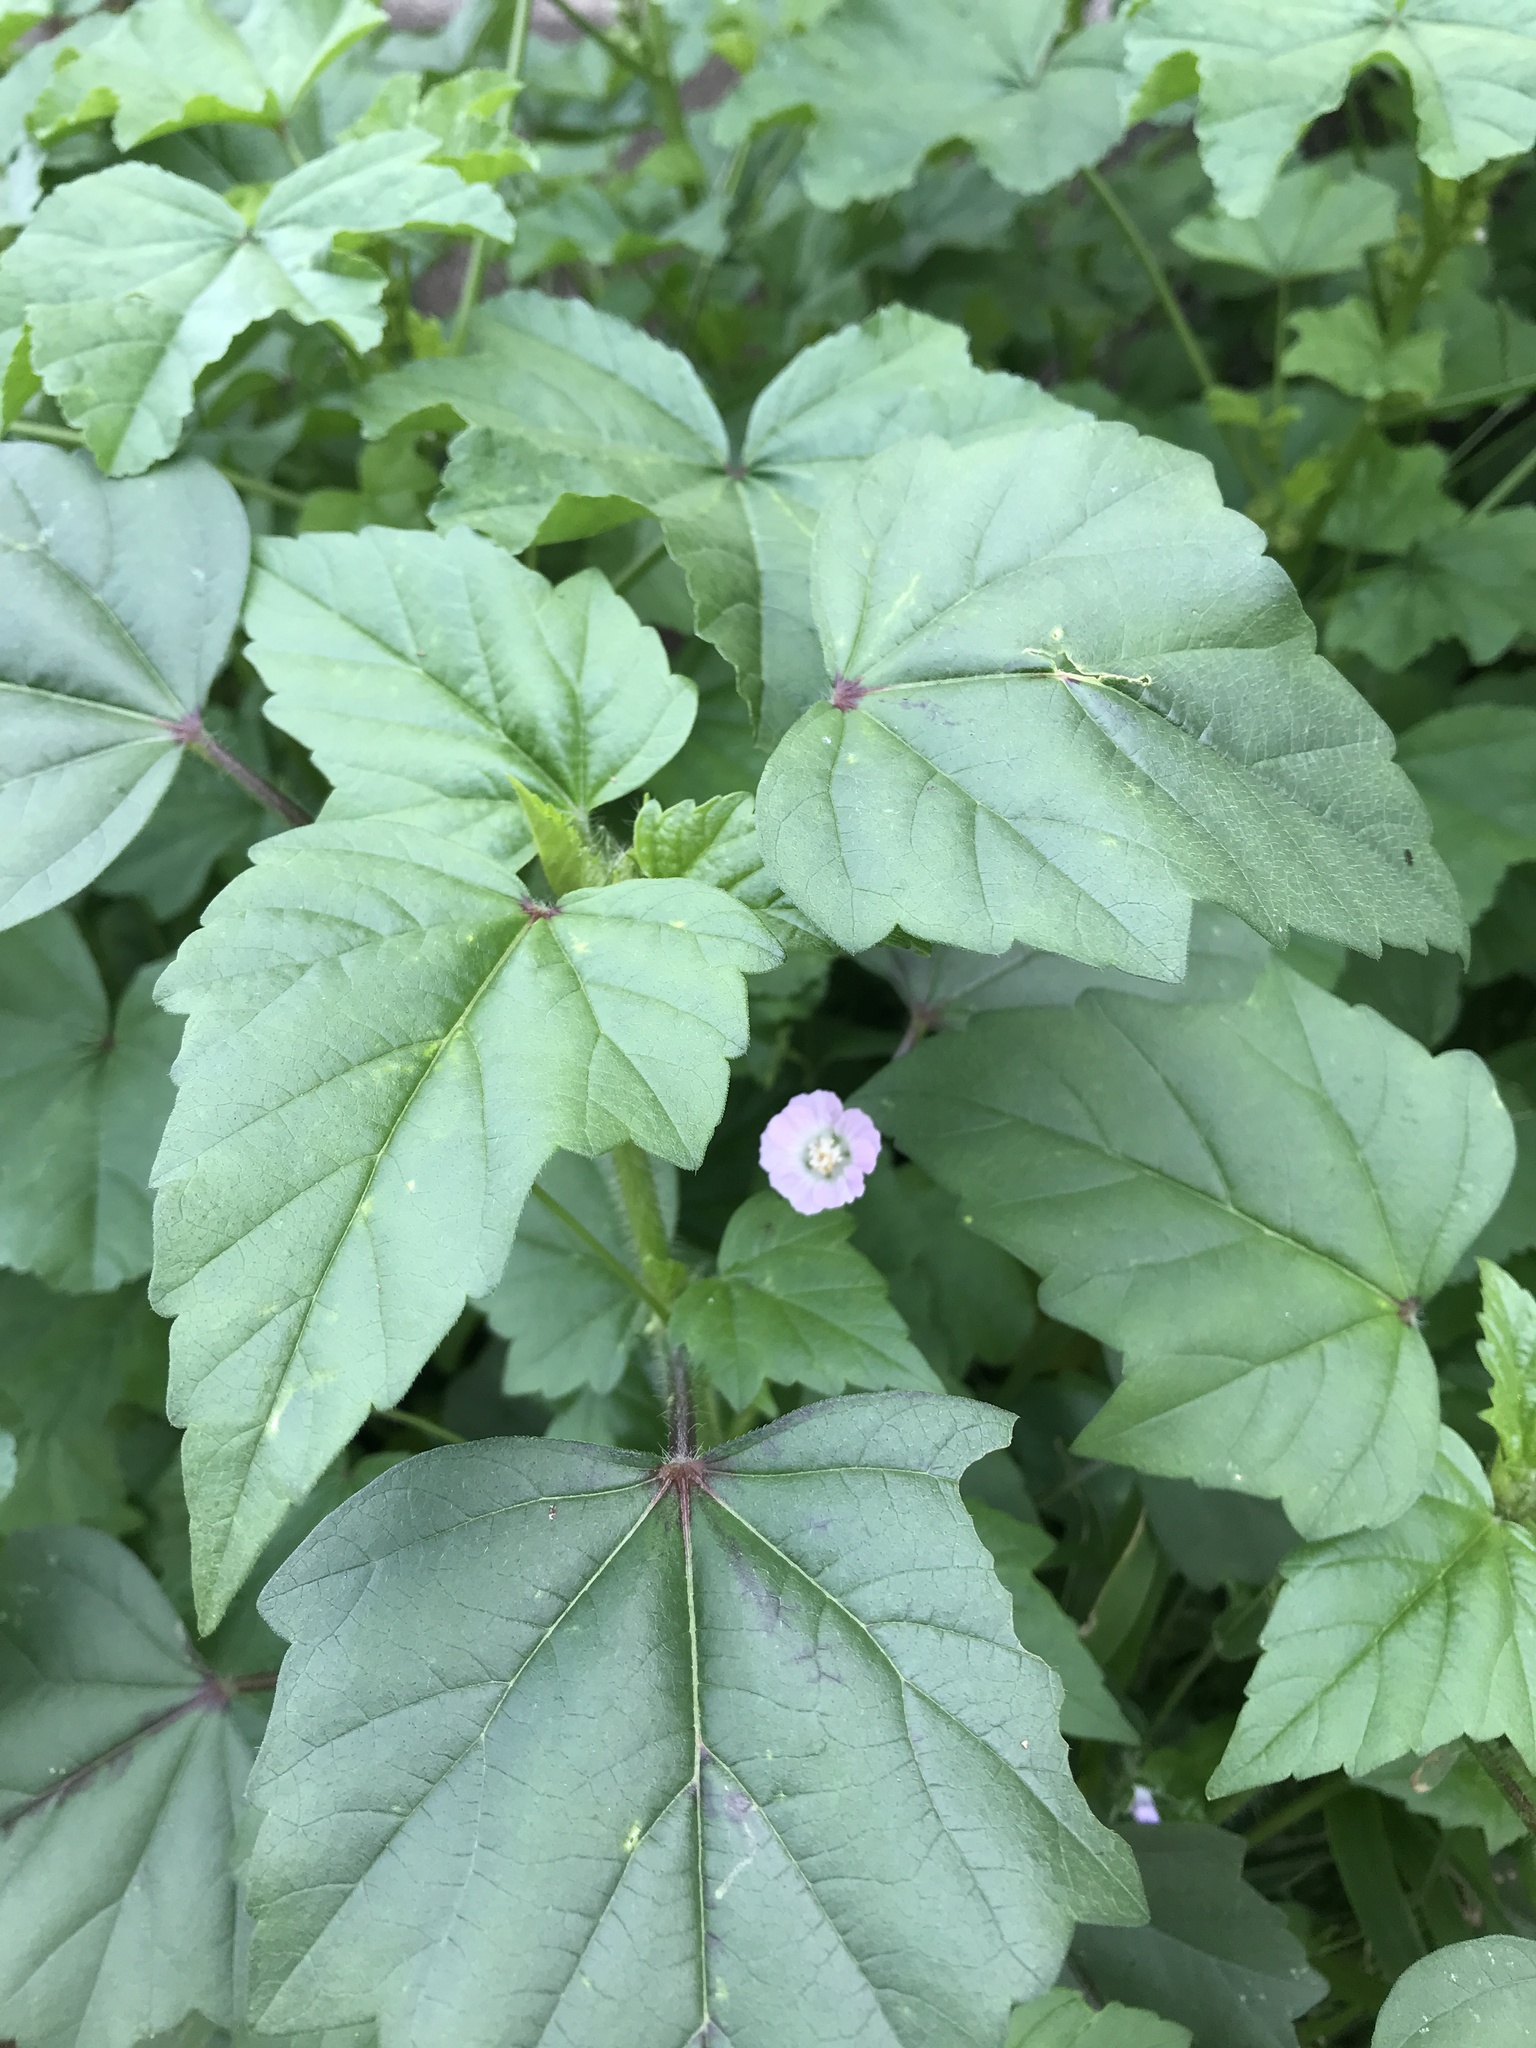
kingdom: Plantae
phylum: Tracheophyta
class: Magnoliopsida
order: Malvales
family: Malvaceae
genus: Anoda
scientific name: Anoda cristata
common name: Spurred anoda
